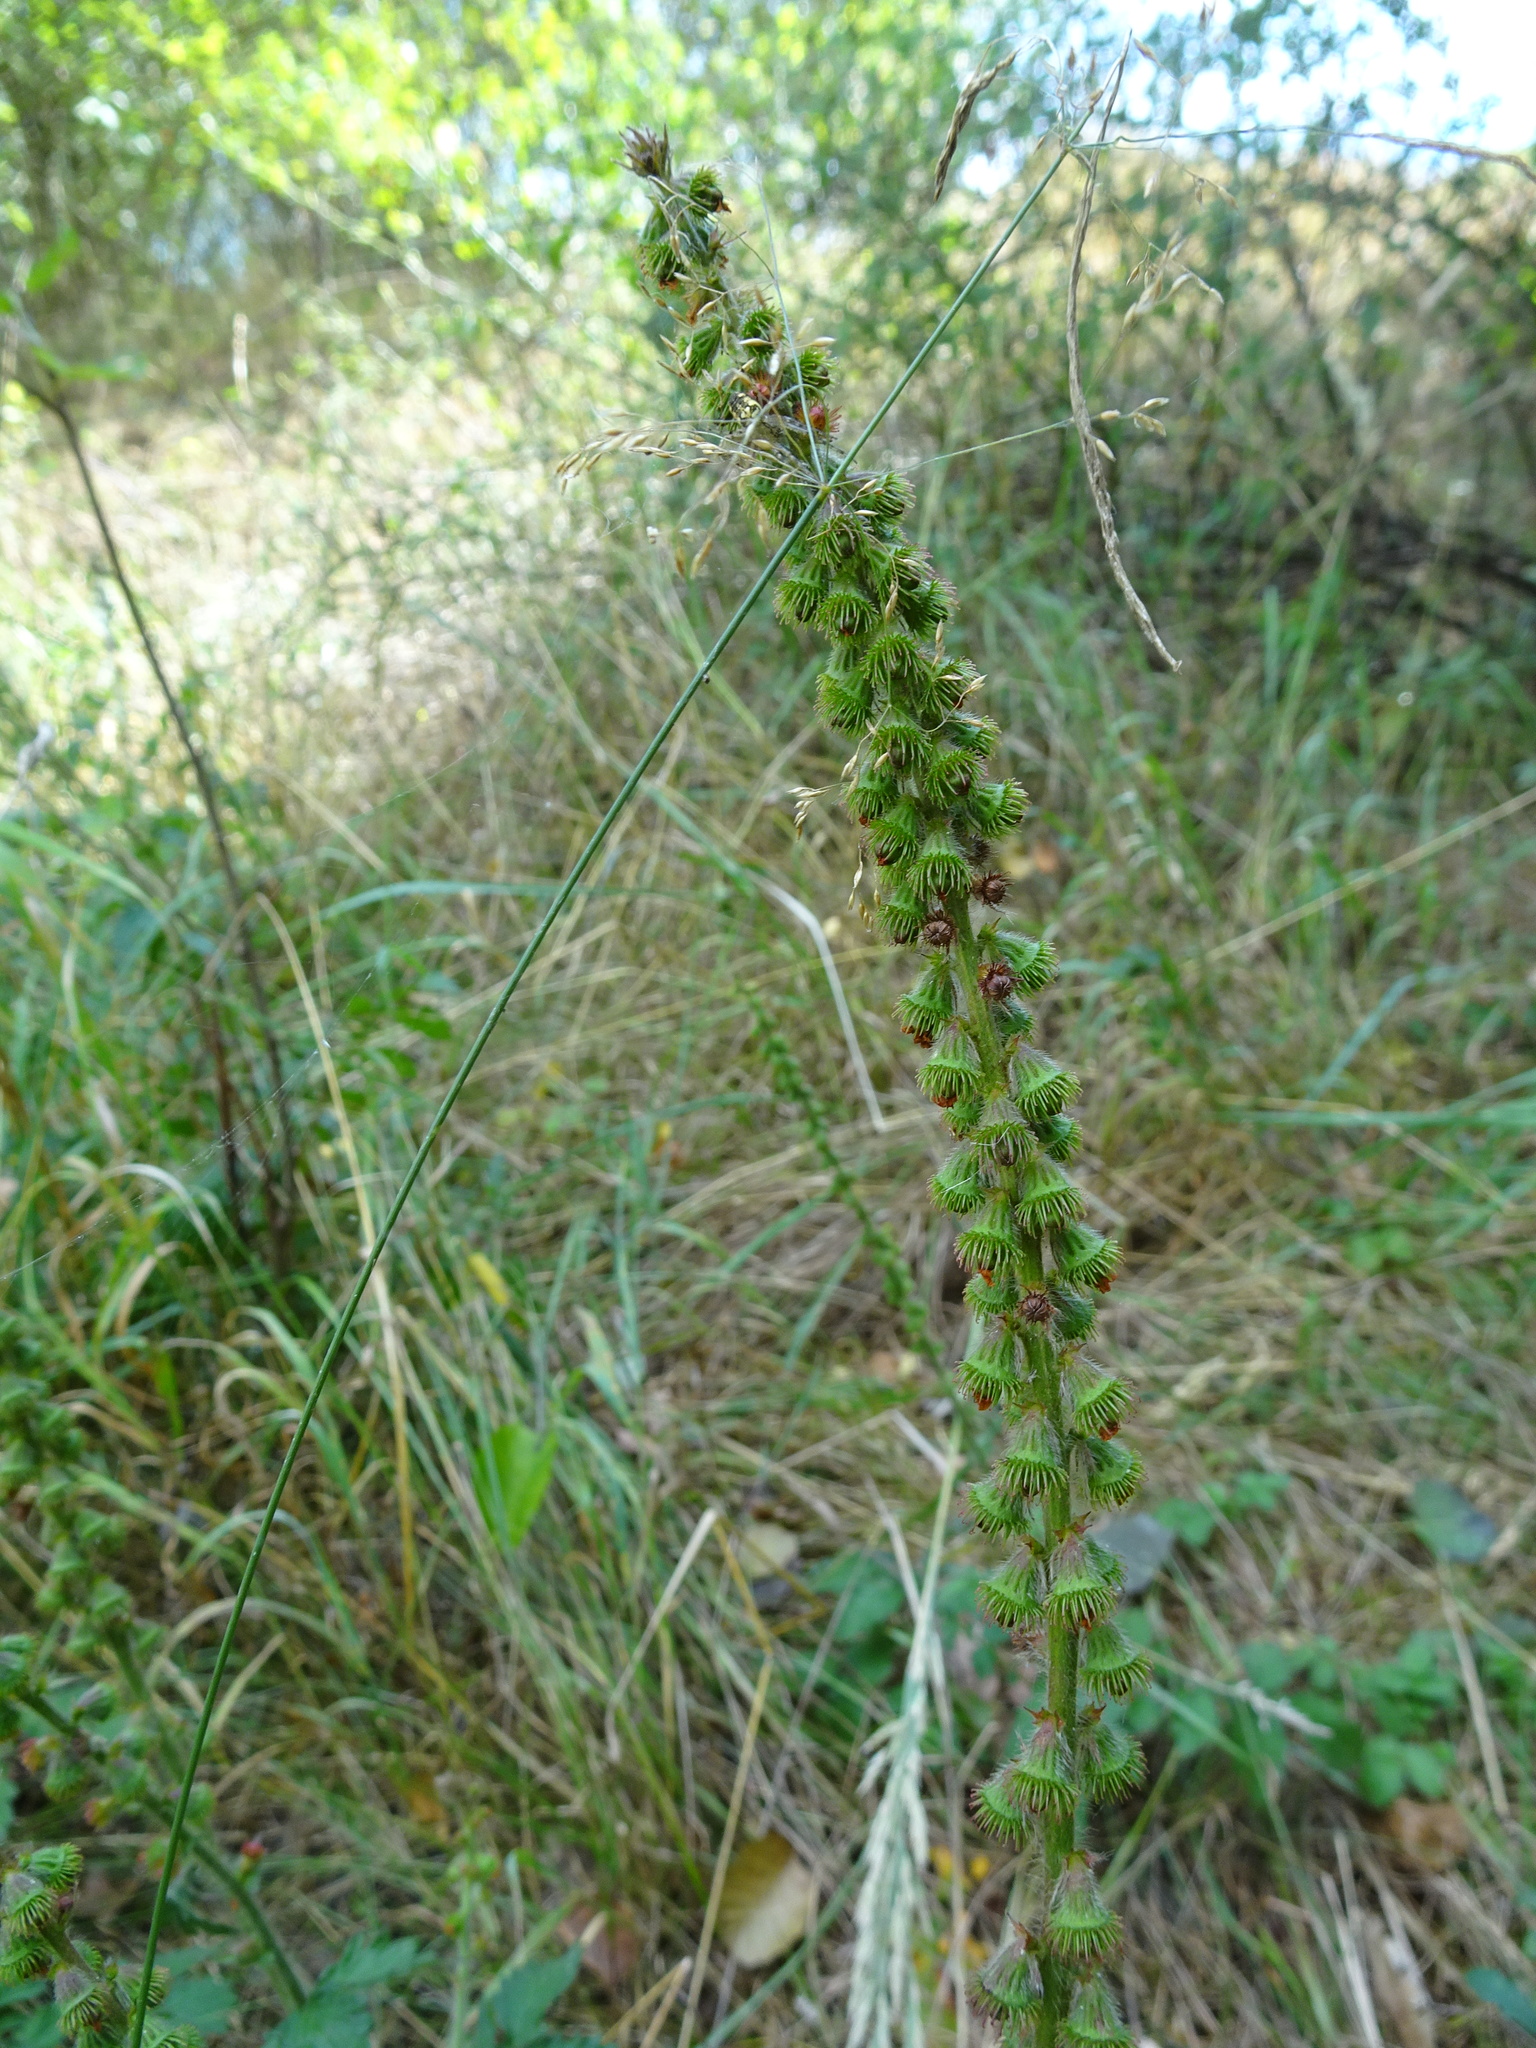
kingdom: Plantae
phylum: Tracheophyta
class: Magnoliopsida
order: Rosales
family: Rosaceae
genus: Agrimonia
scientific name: Agrimonia eupatoria
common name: Agrimony
